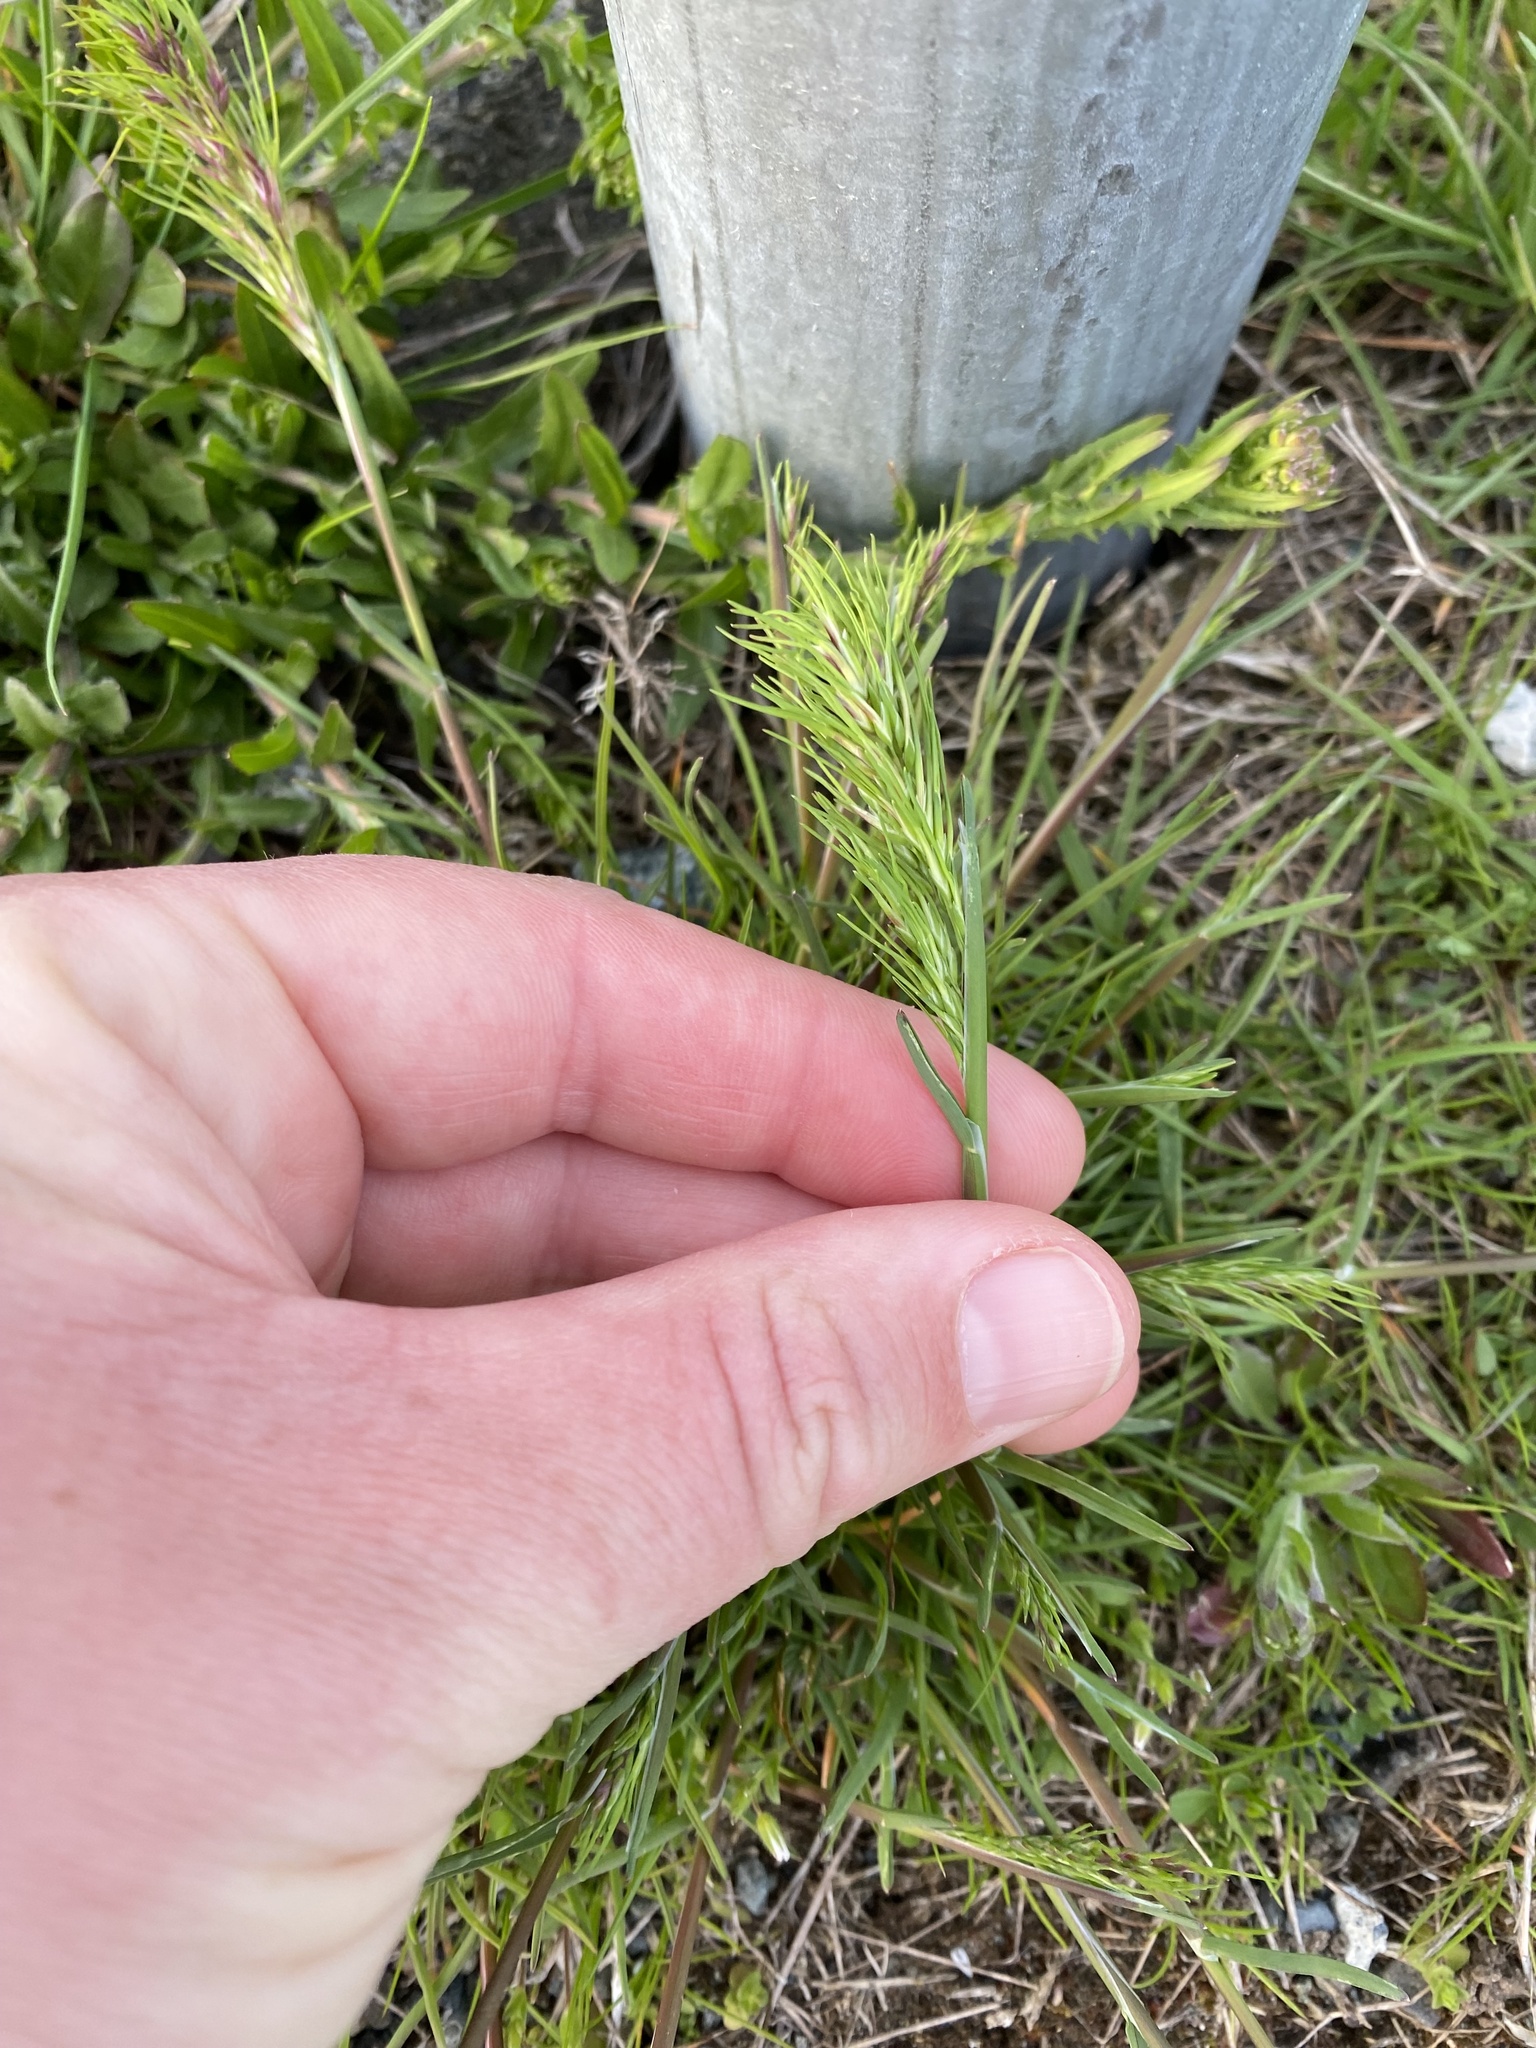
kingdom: Plantae
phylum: Tracheophyta
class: Liliopsida
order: Poales
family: Poaceae
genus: Poa
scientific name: Poa bulbosa
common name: Bulbous bluegrass
